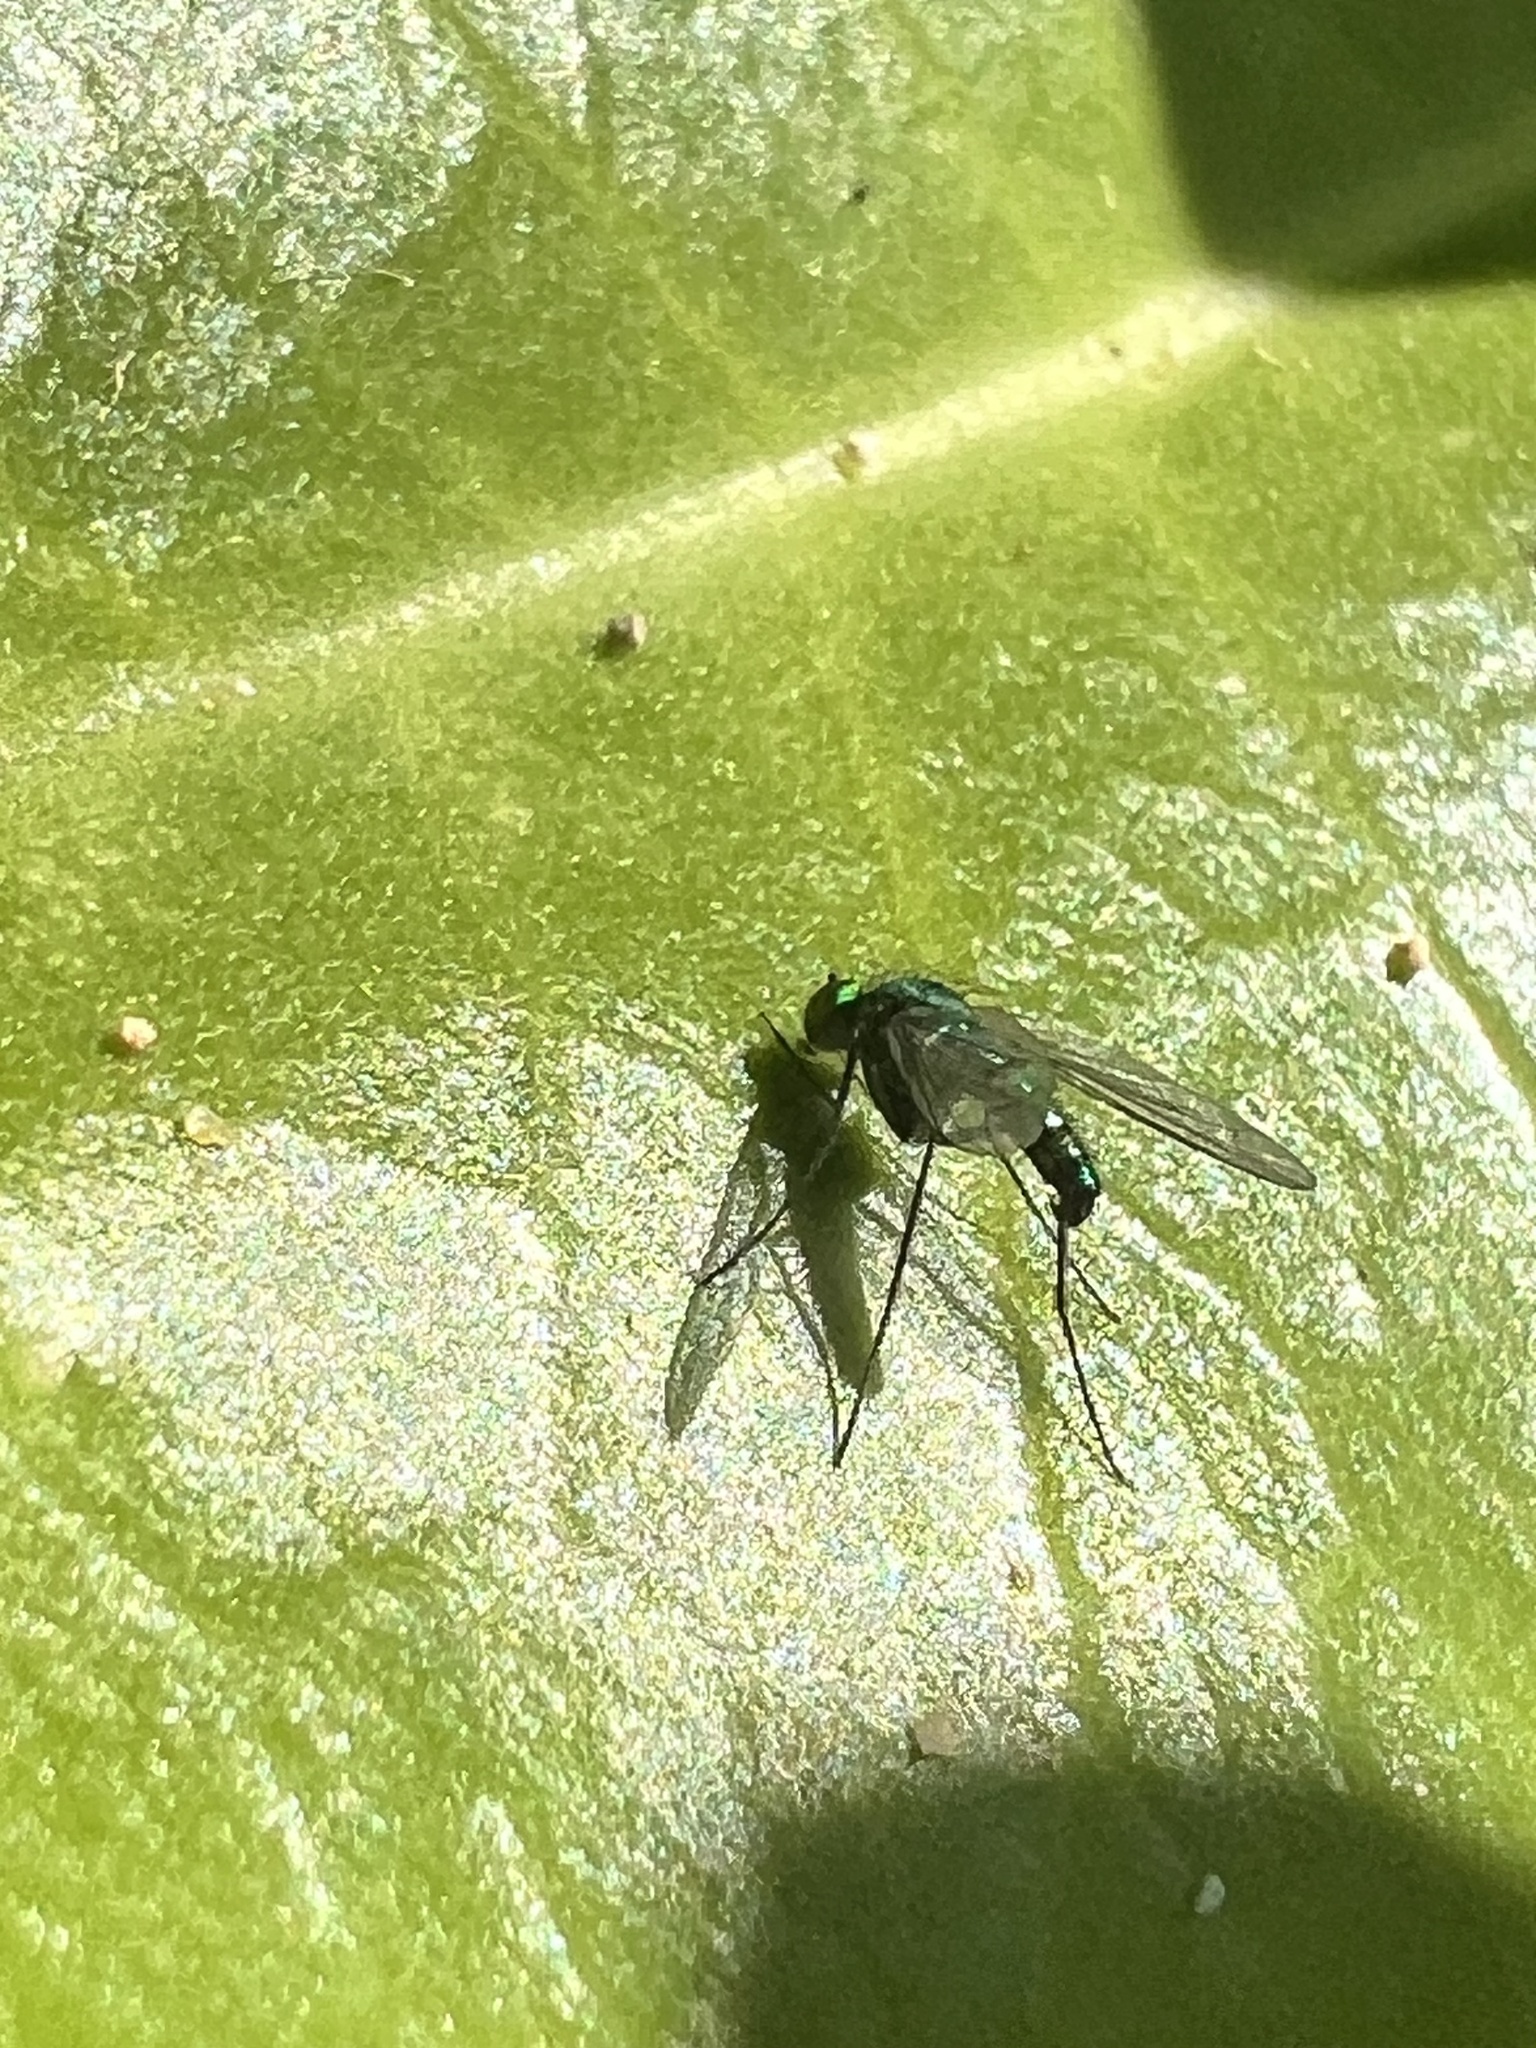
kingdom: Animalia
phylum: Arthropoda
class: Insecta
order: Diptera
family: Dolichopodidae
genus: Condylostylus
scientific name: Condylostylus longicornis
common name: Long-legged fly
